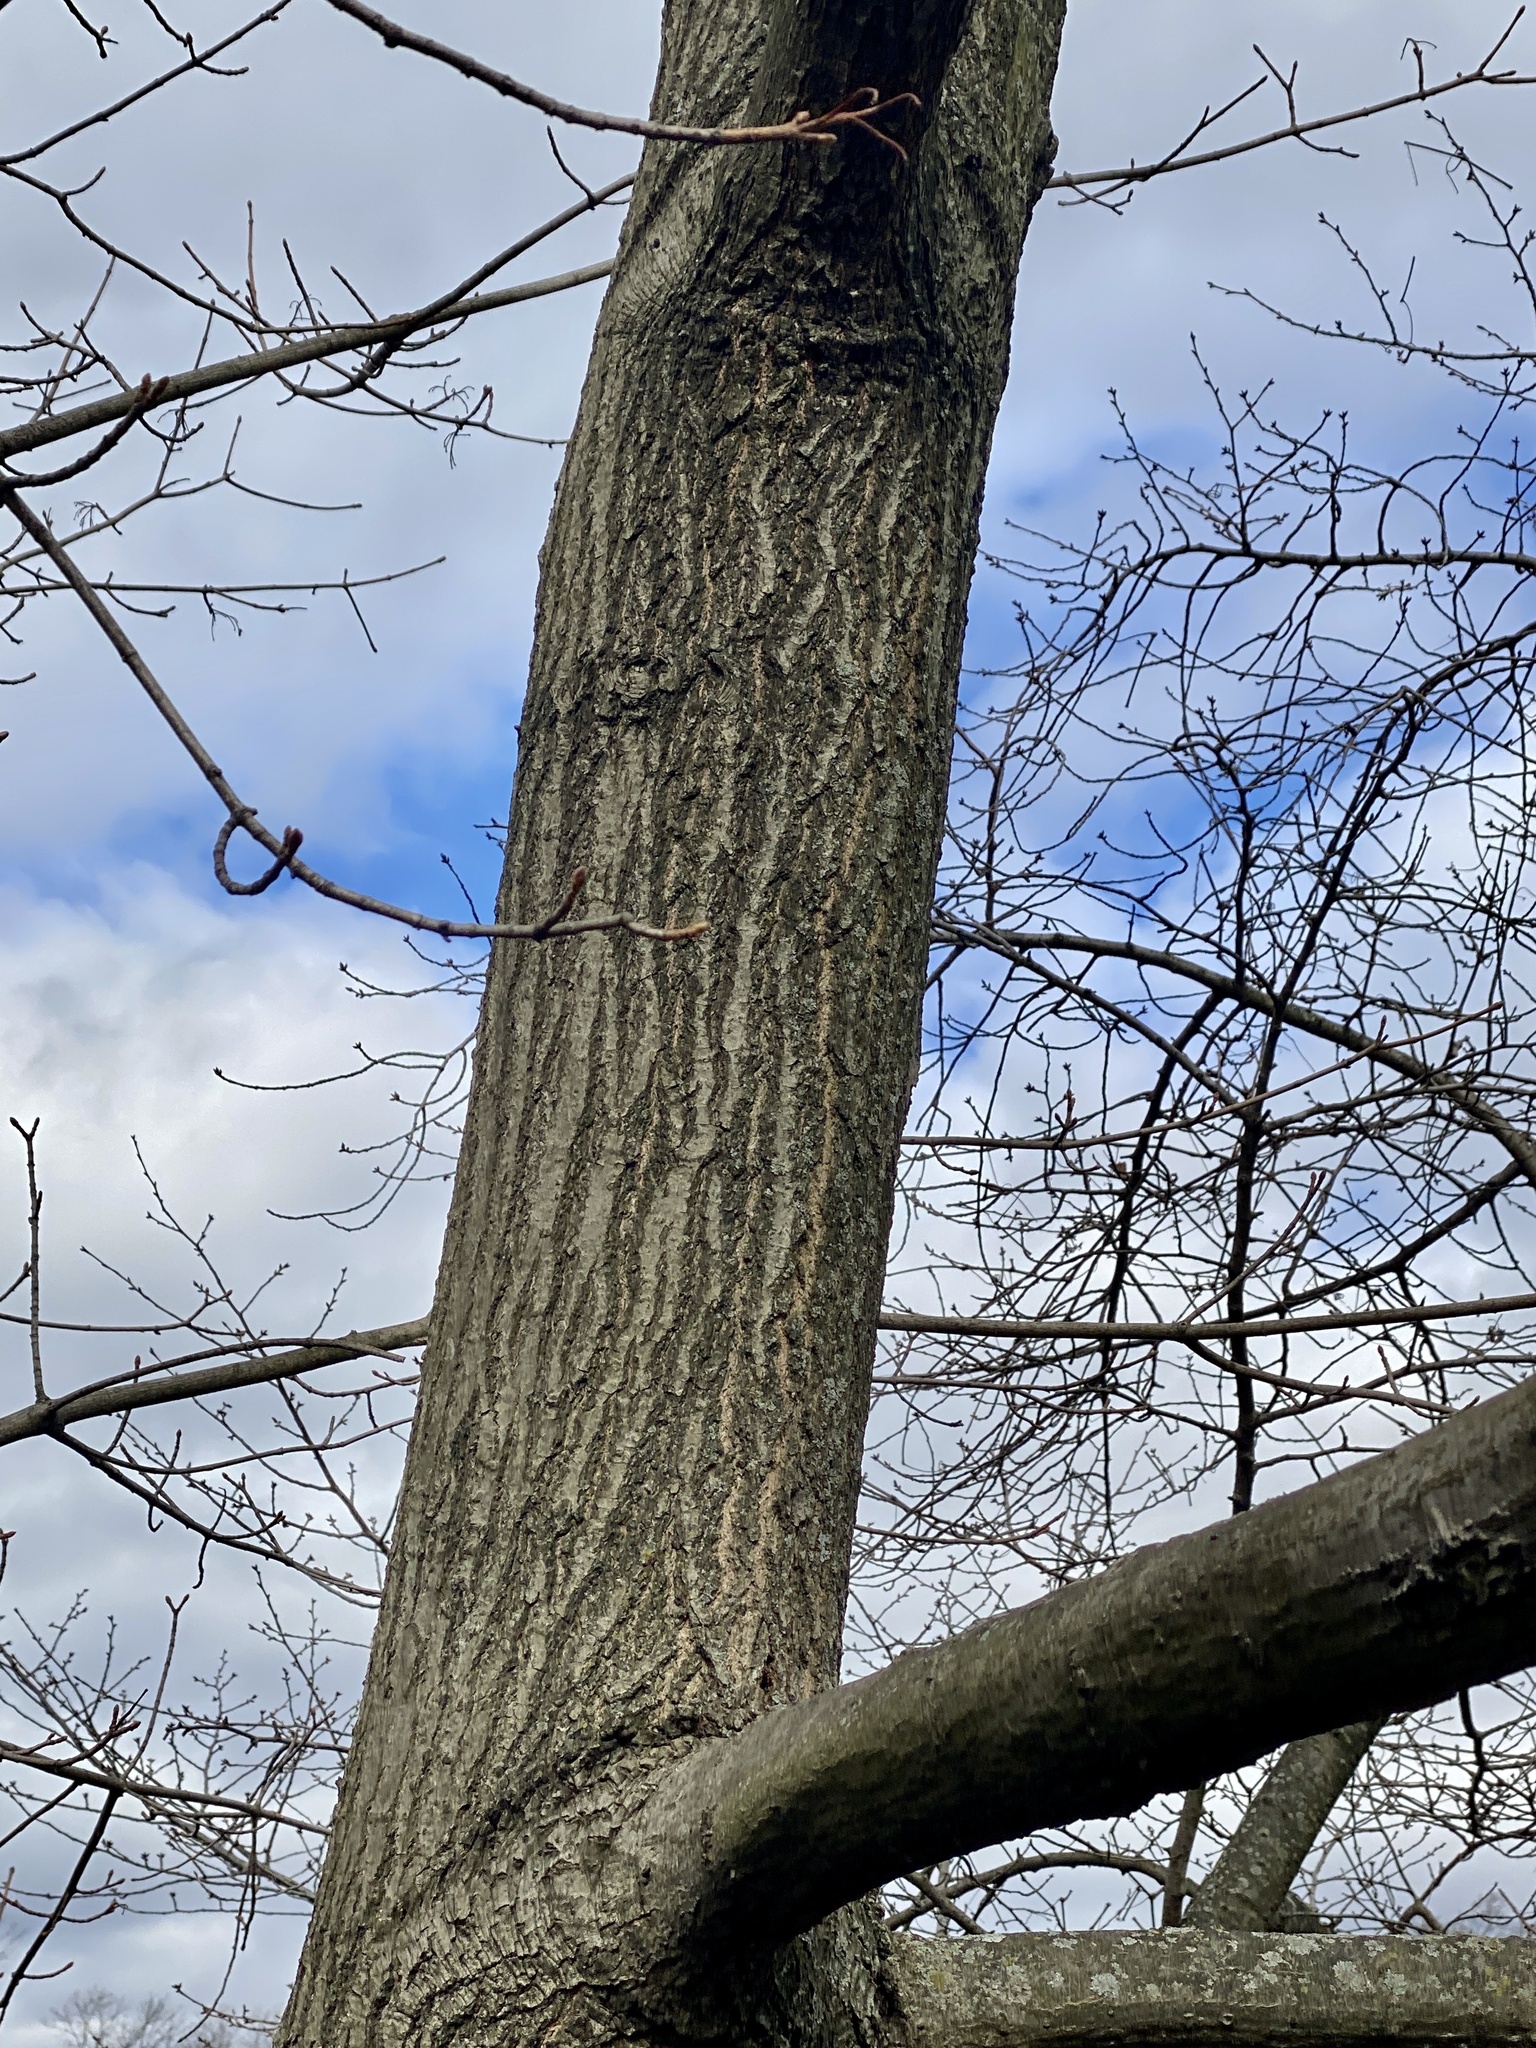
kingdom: Plantae
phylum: Tracheophyta
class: Magnoliopsida
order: Fagales
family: Fagaceae
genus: Quercus
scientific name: Quercus rubra
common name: Red oak
